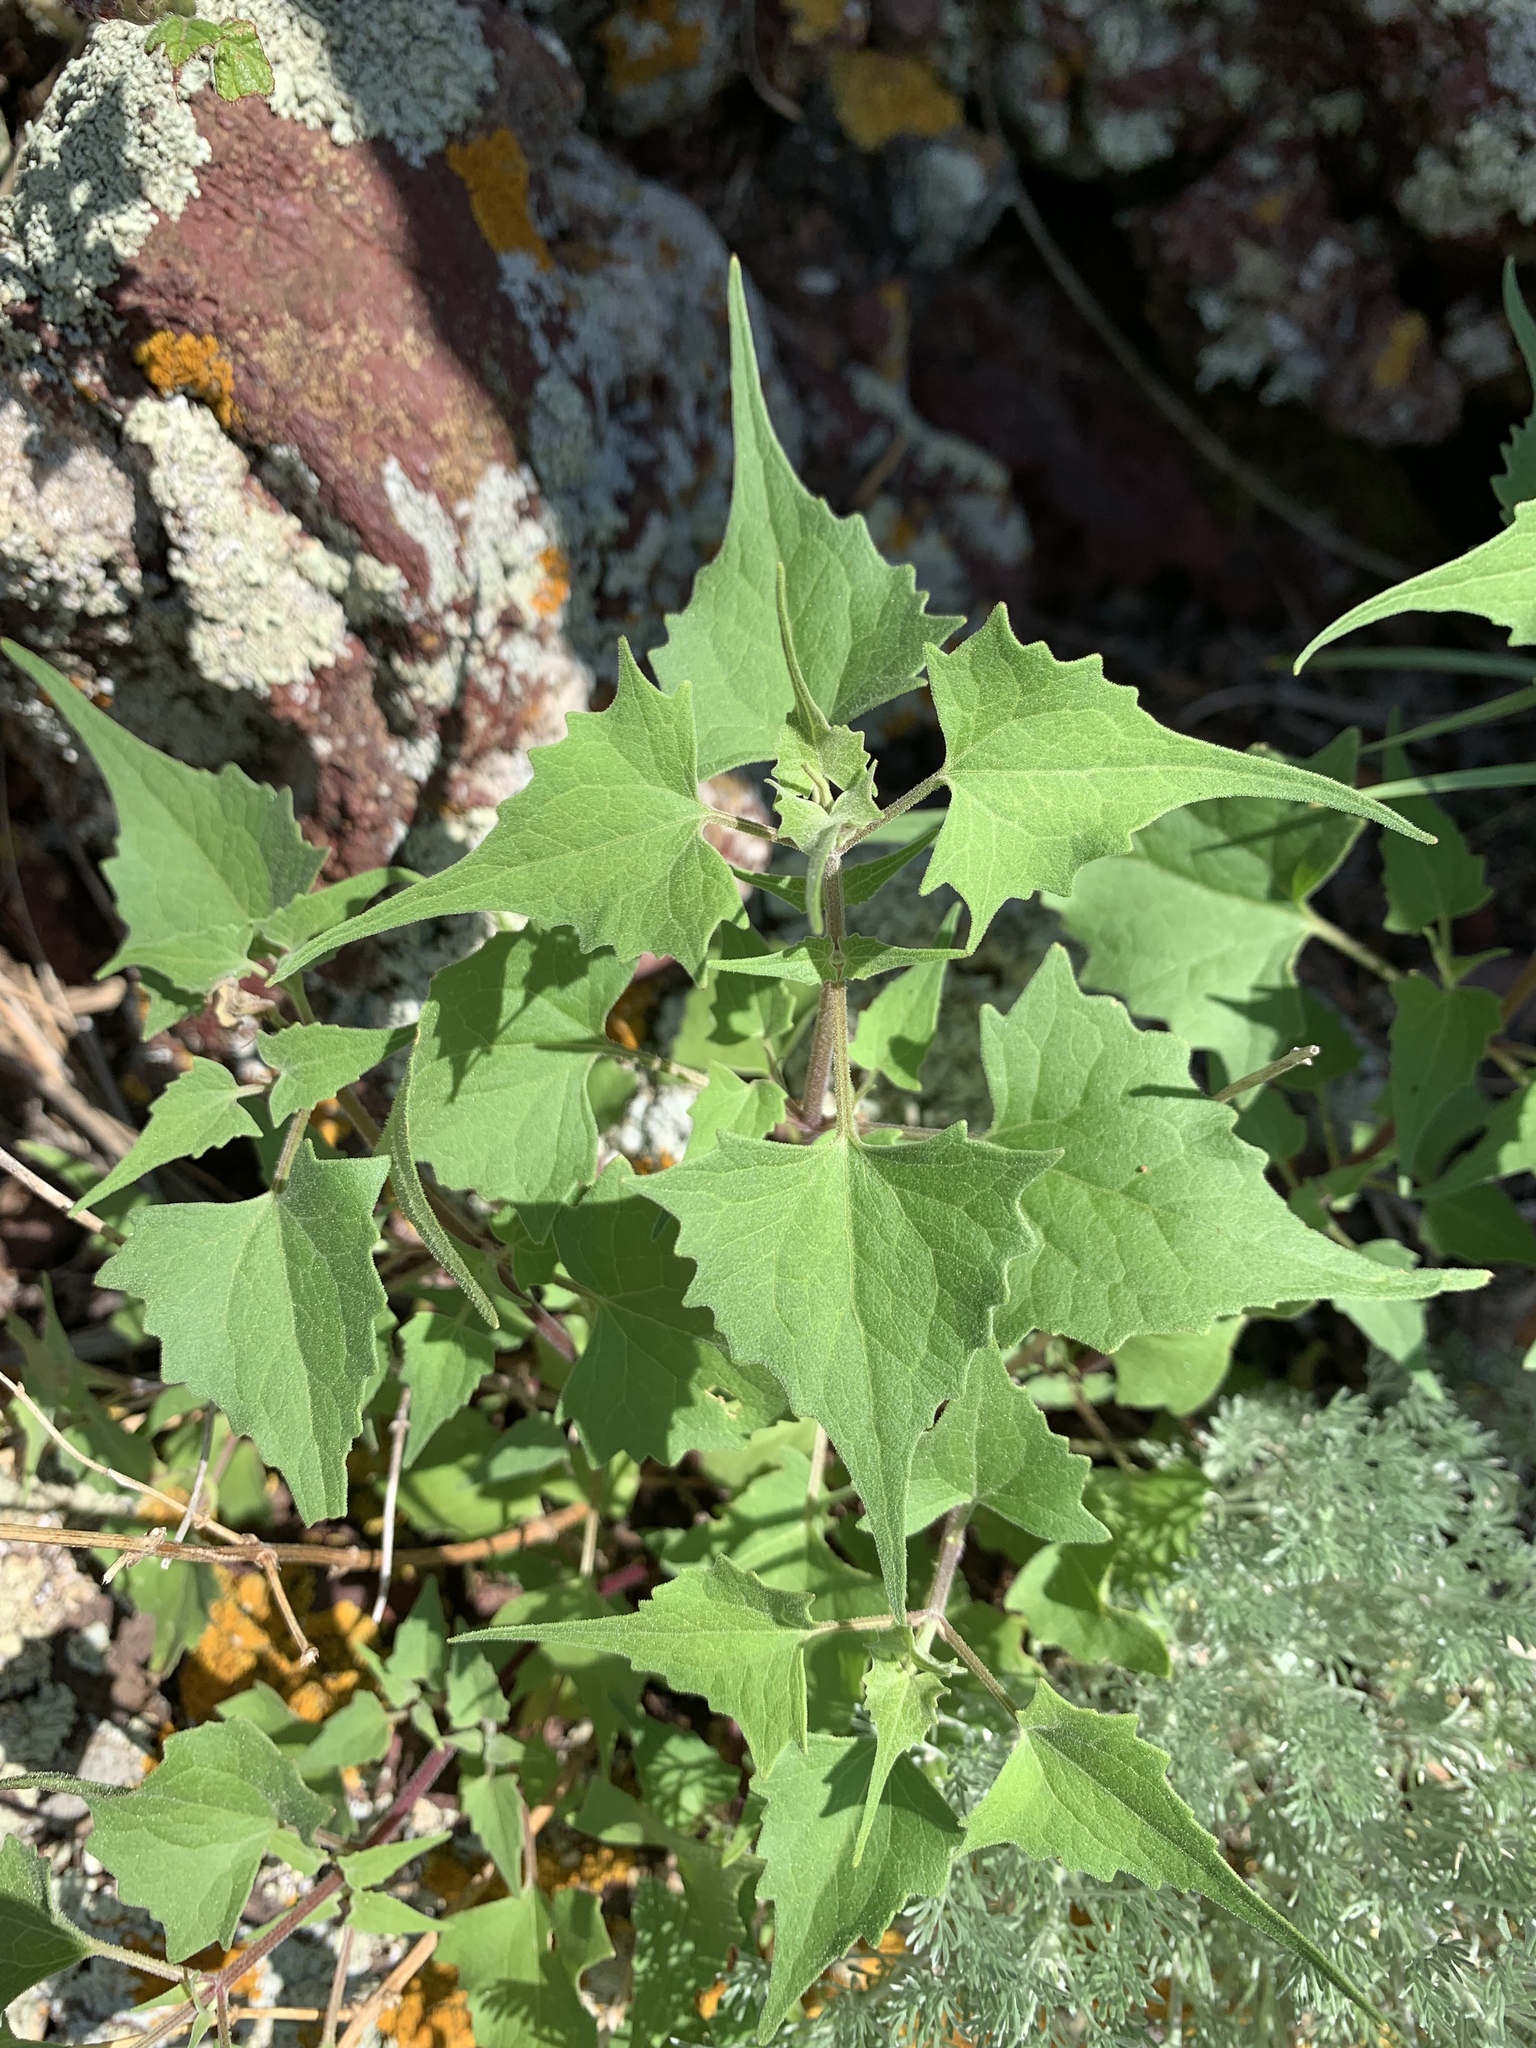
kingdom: Plantae
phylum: Tracheophyta
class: Magnoliopsida
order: Asterales
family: Asteraceae
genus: Pericome
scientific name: Pericome caudata
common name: Taperleaf
